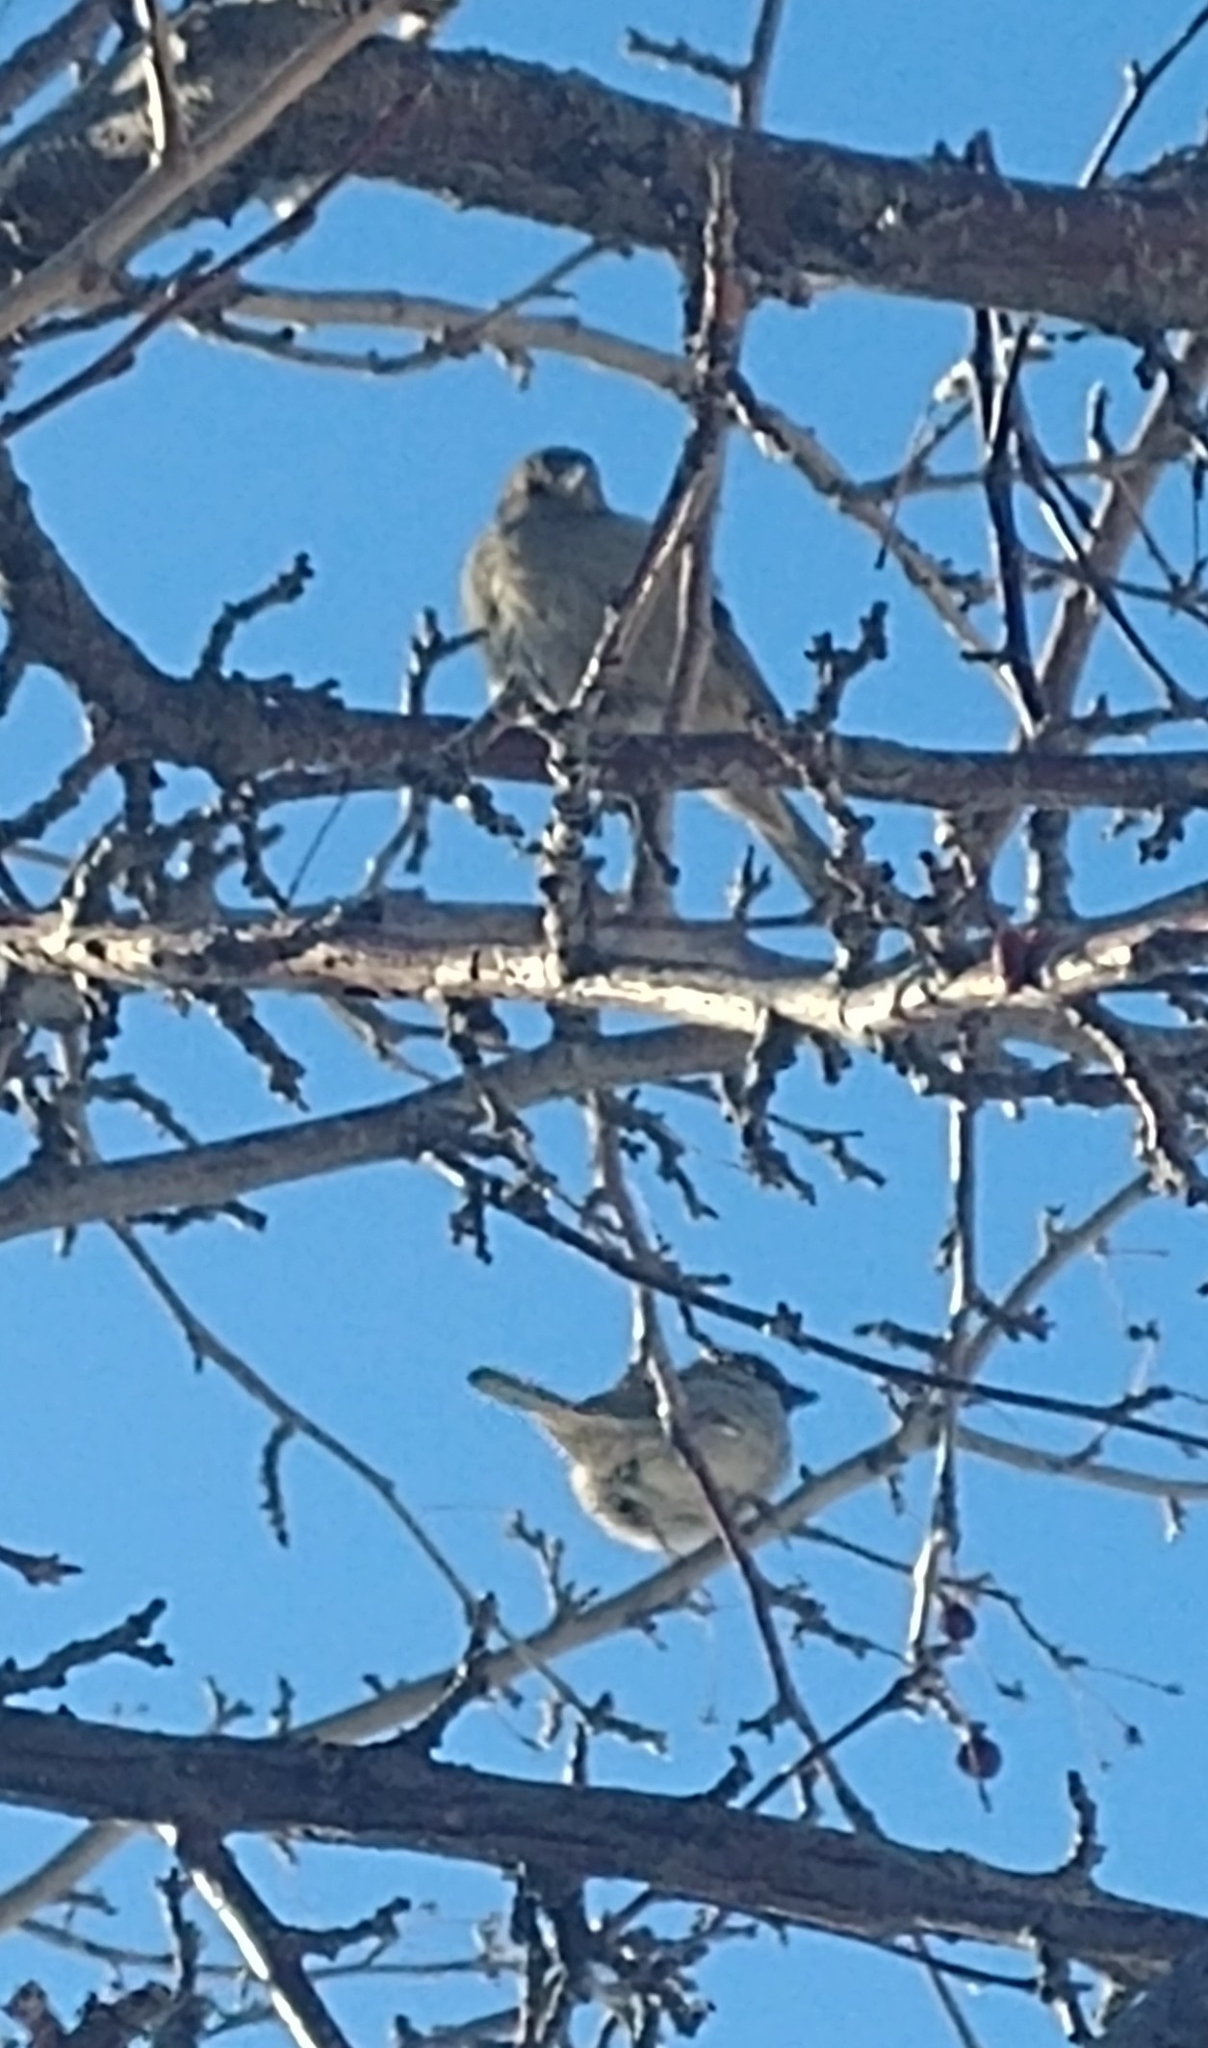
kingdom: Animalia
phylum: Chordata
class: Aves
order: Passeriformes
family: Passeridae
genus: Passer
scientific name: Passer domesticus
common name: House sparrow
